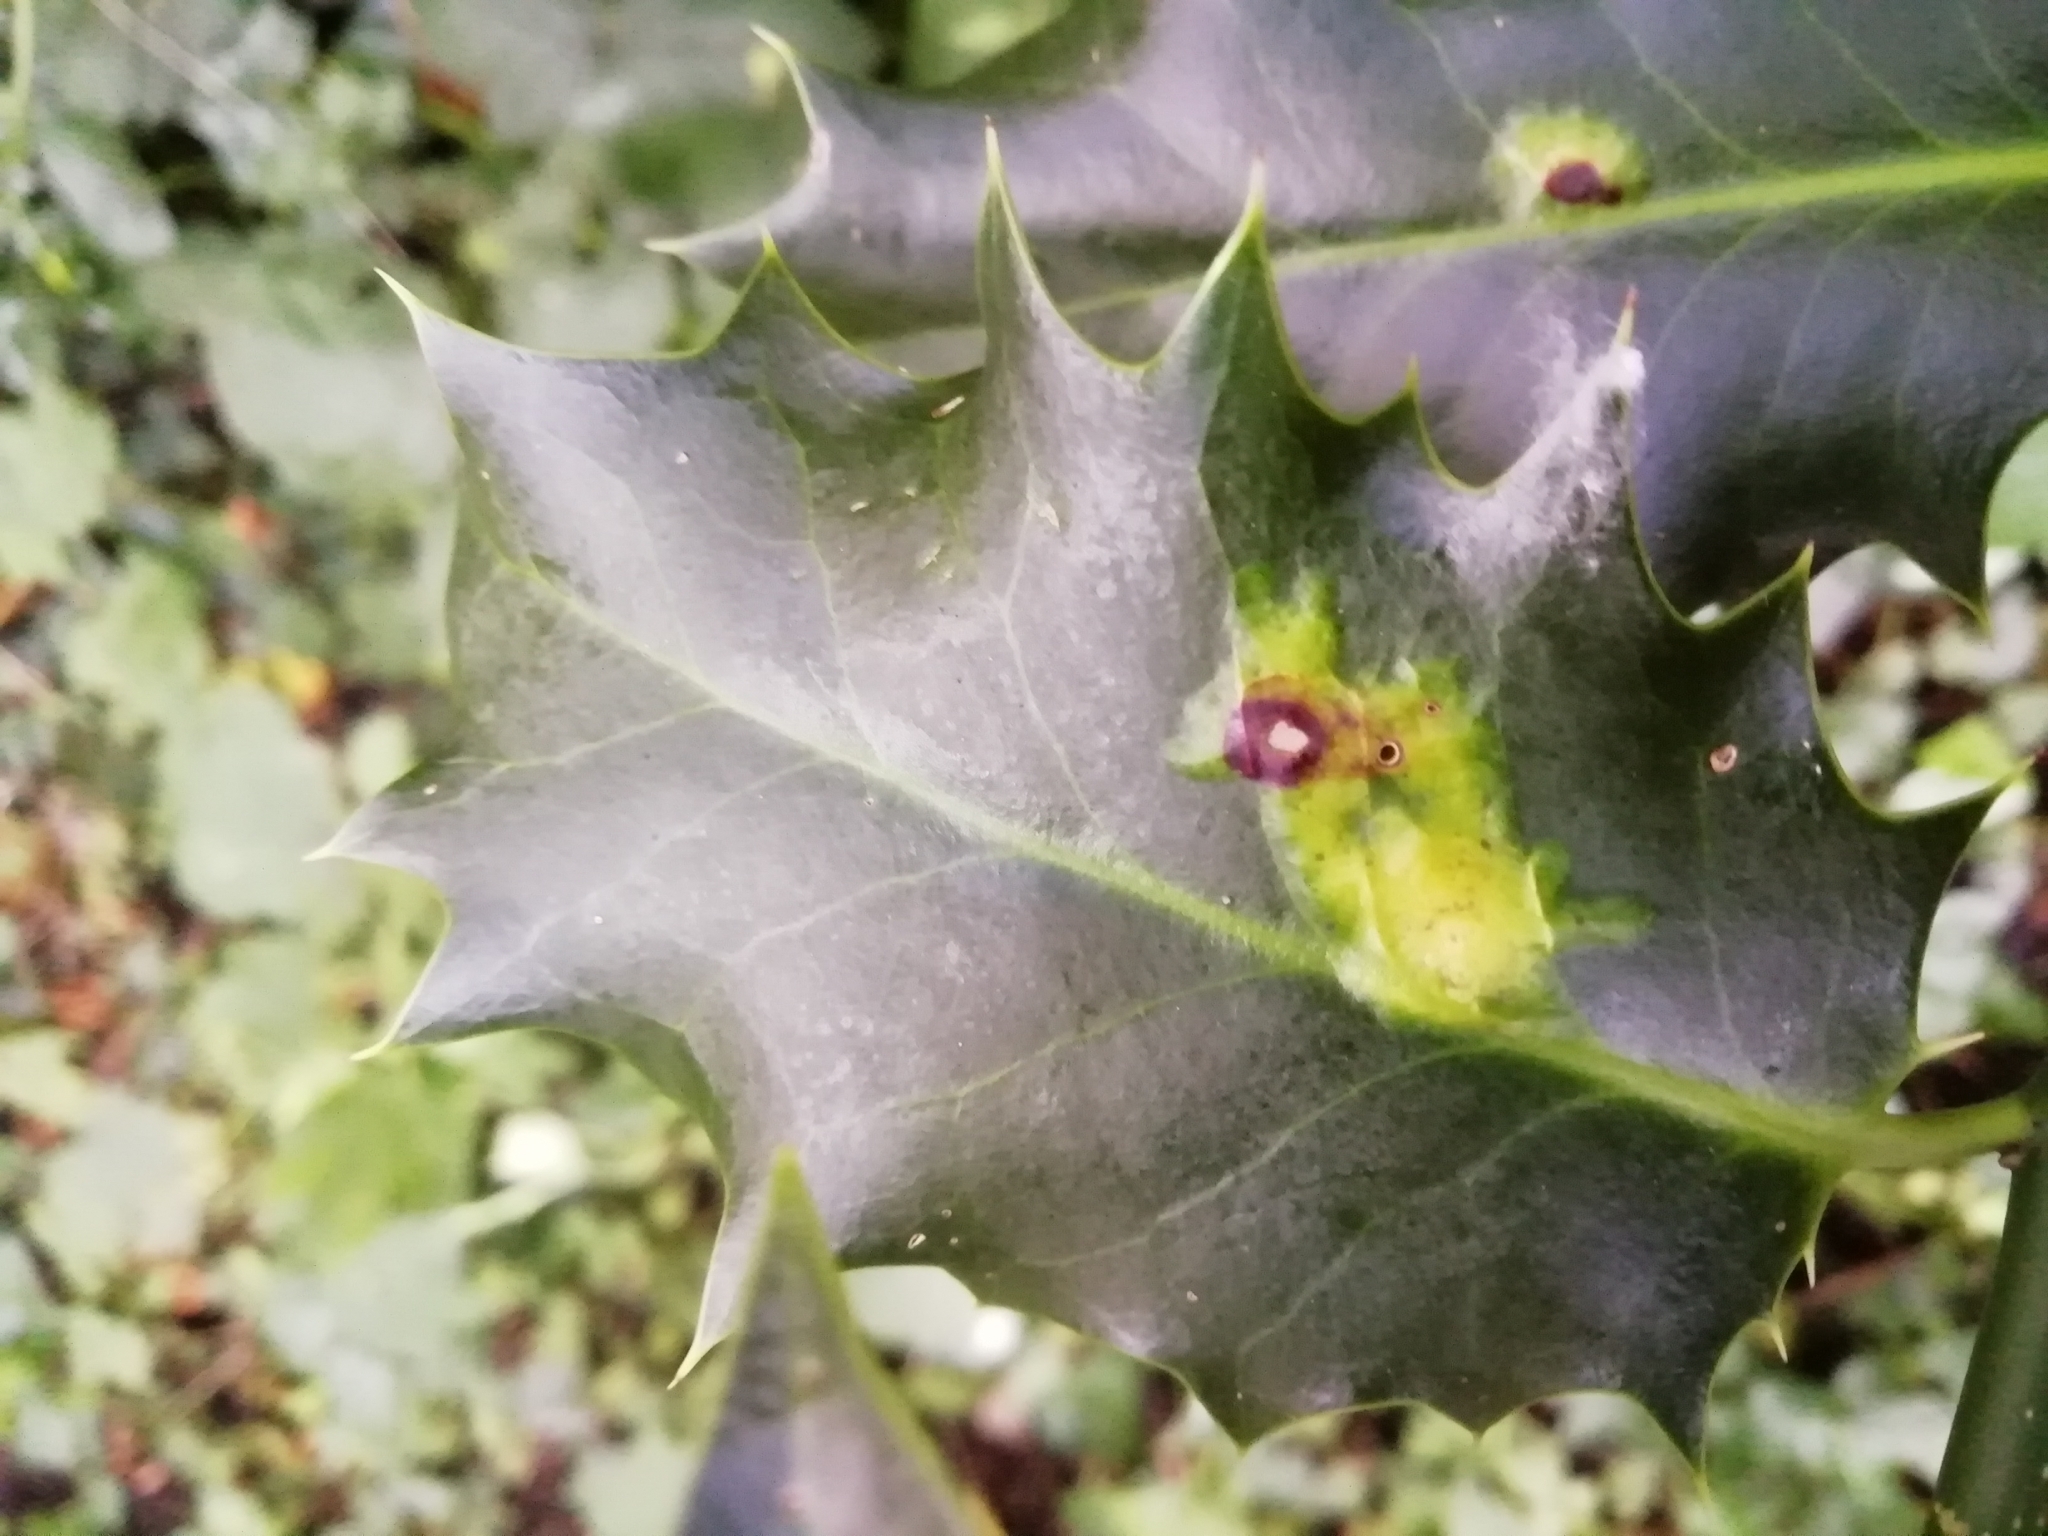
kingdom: Animalia
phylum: Arthropoda
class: Insecta
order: Diptera
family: Agromyzidae
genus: Phytomyza
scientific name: Phytomyza ilicis
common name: Holly leafminer
